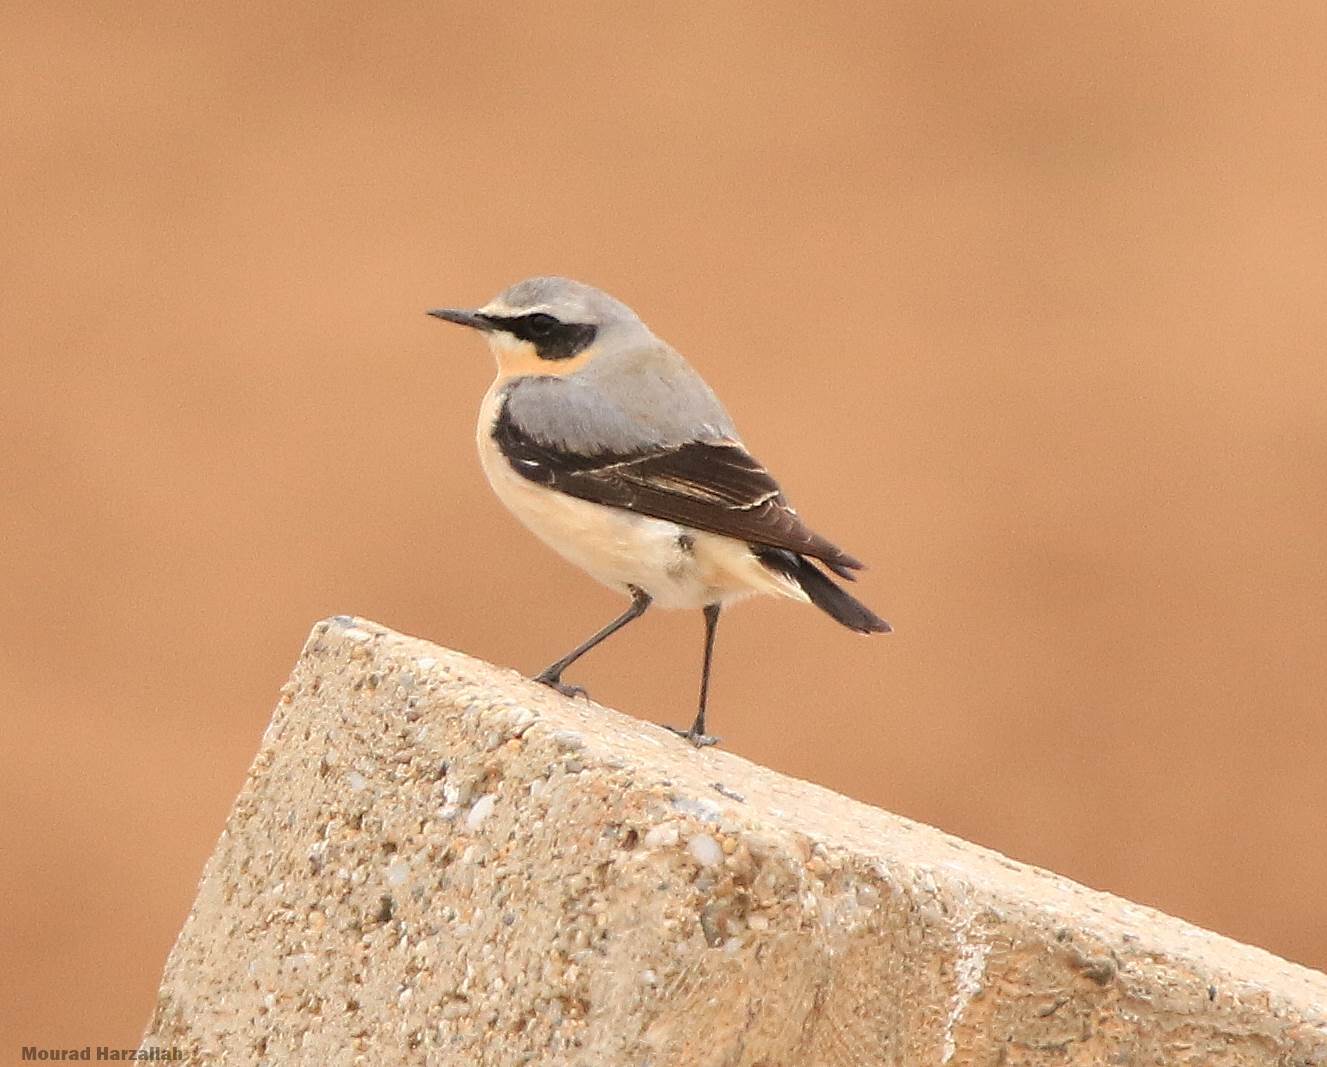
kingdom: Animalia
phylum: Chordata
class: Aves
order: Passeriformes
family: Muscicapidae
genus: Oenanthe
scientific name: Oenanthe oenanthe
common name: Northern wheatear
